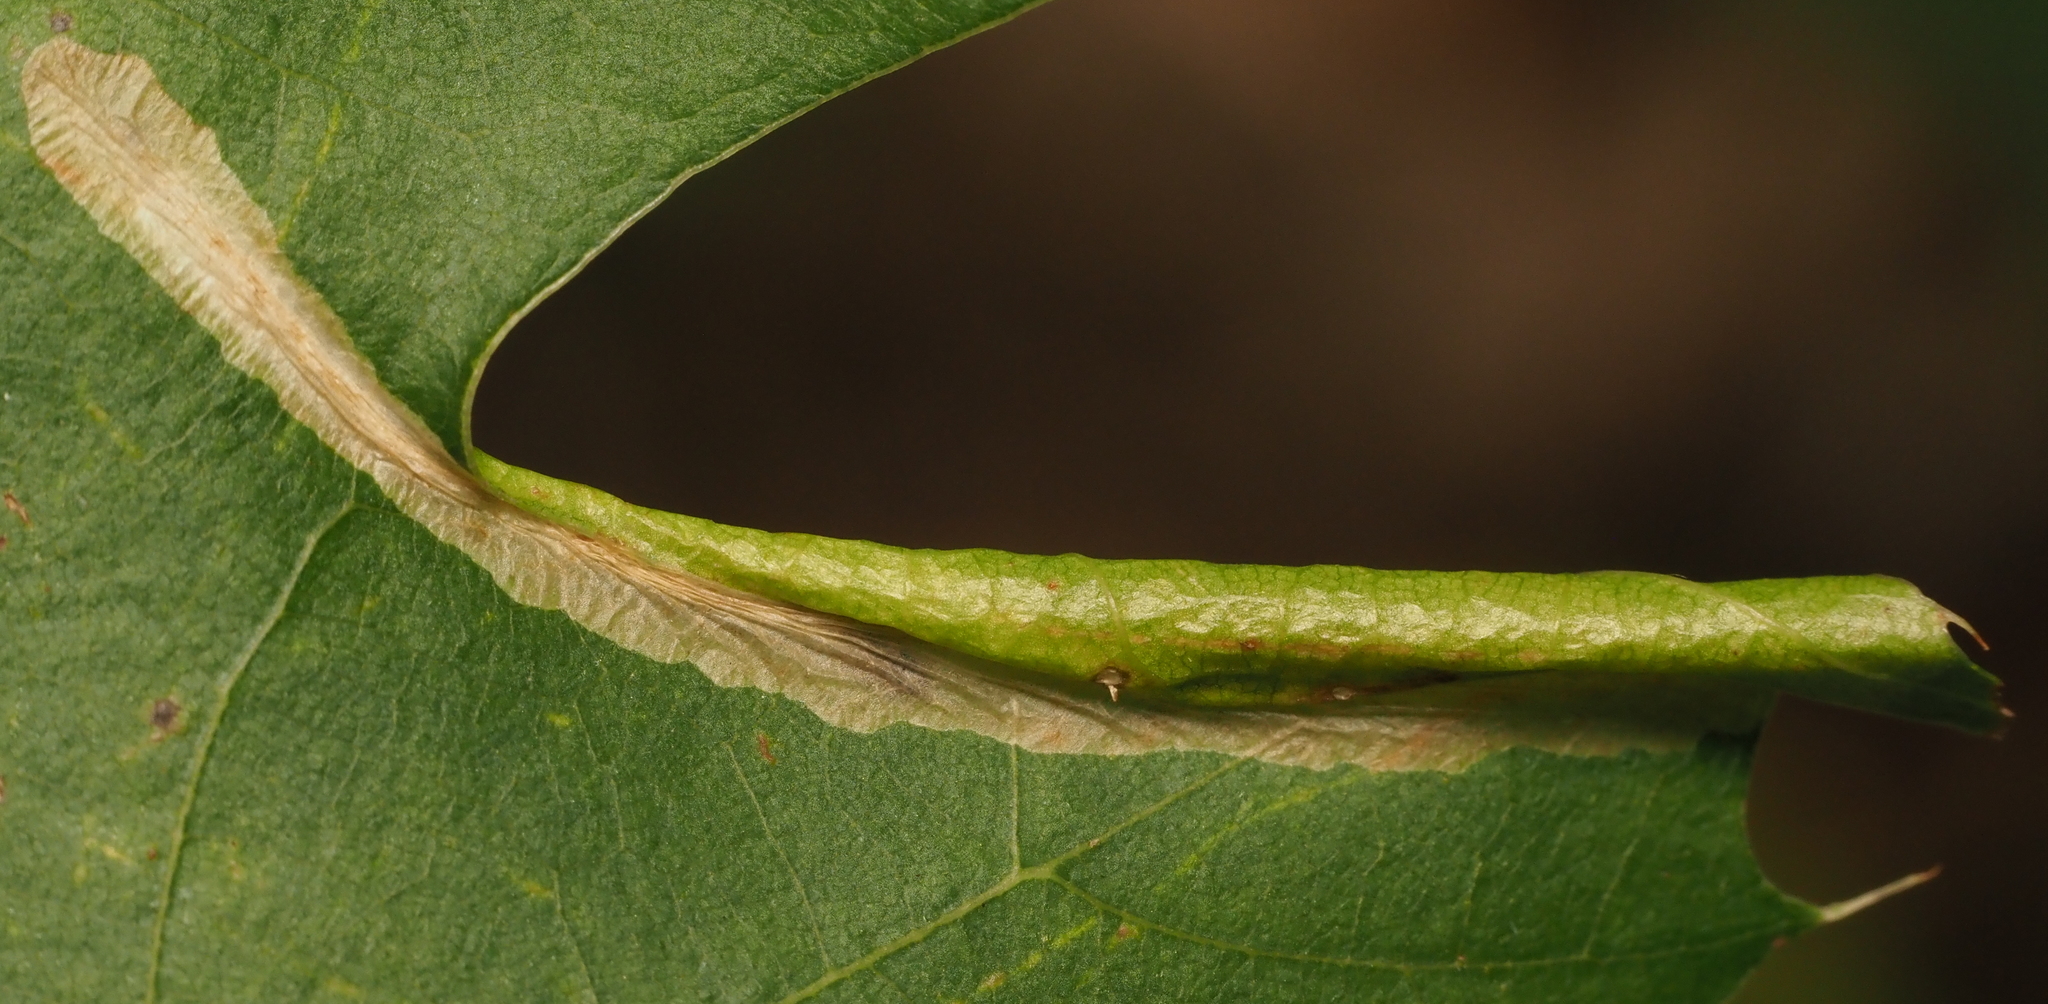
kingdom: Animalia
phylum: Arthropoda
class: Insecta
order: Lepidoptera
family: Tischeriidae
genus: Coptotriche
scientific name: Coptotriche citrinipennella
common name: The golden sweeper
